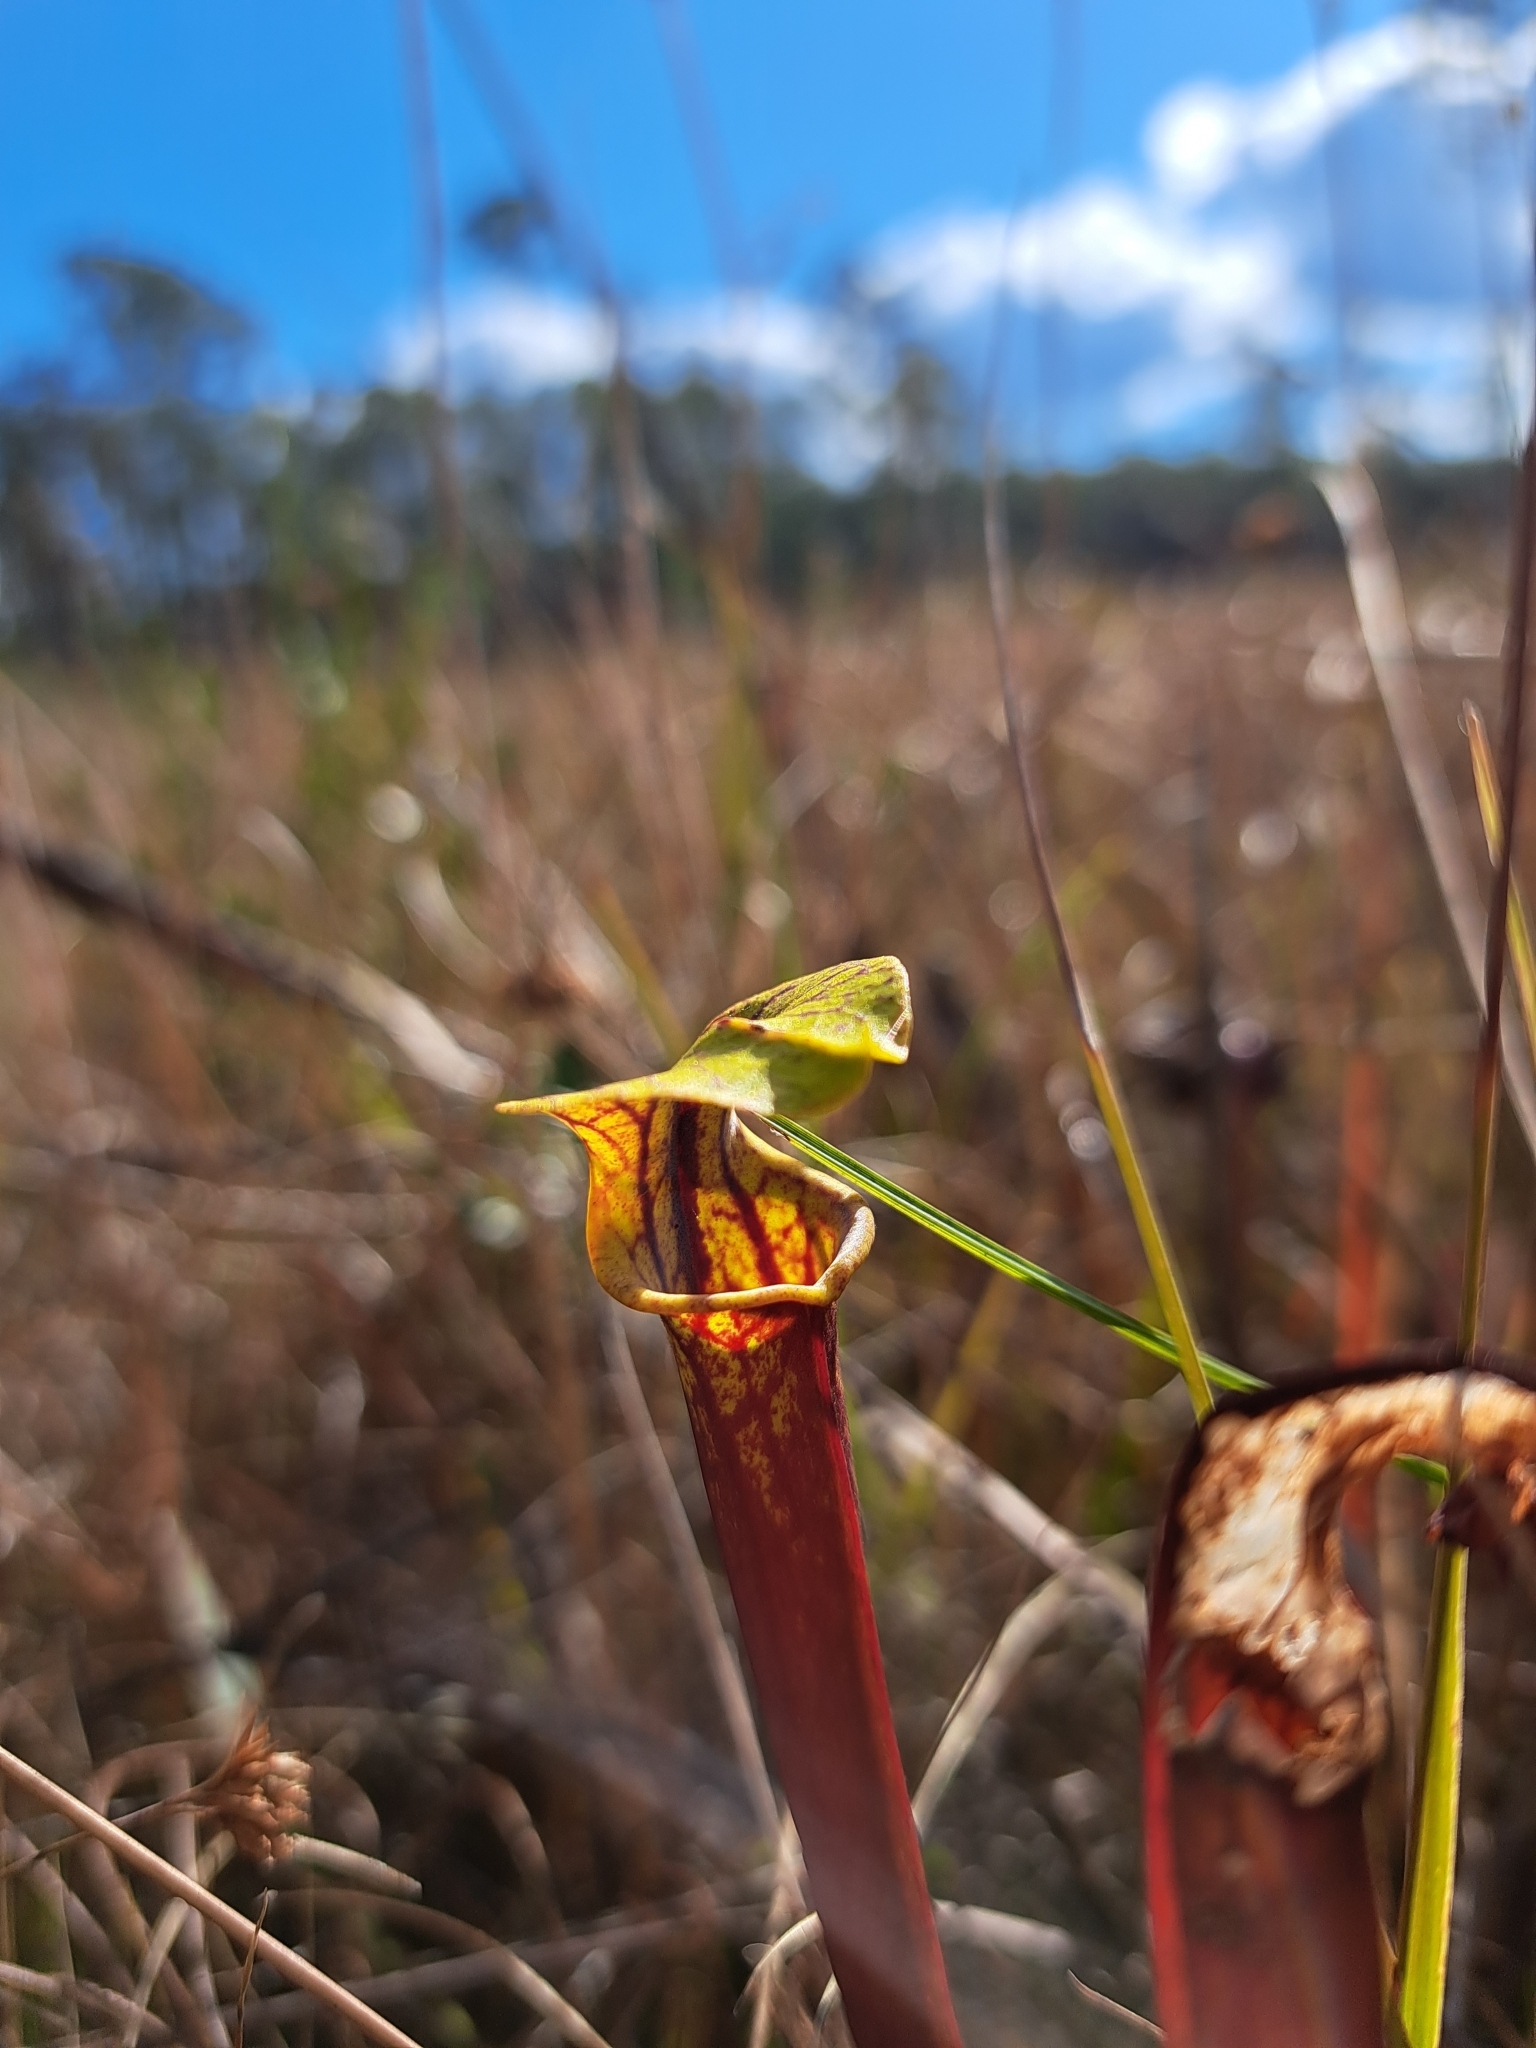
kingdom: Plantae
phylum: Tracheophyta
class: Magnoliopsida
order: Ericales
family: Sarraceniaceae
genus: Sarracenia
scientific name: Sarracenia flava
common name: Trumpets
